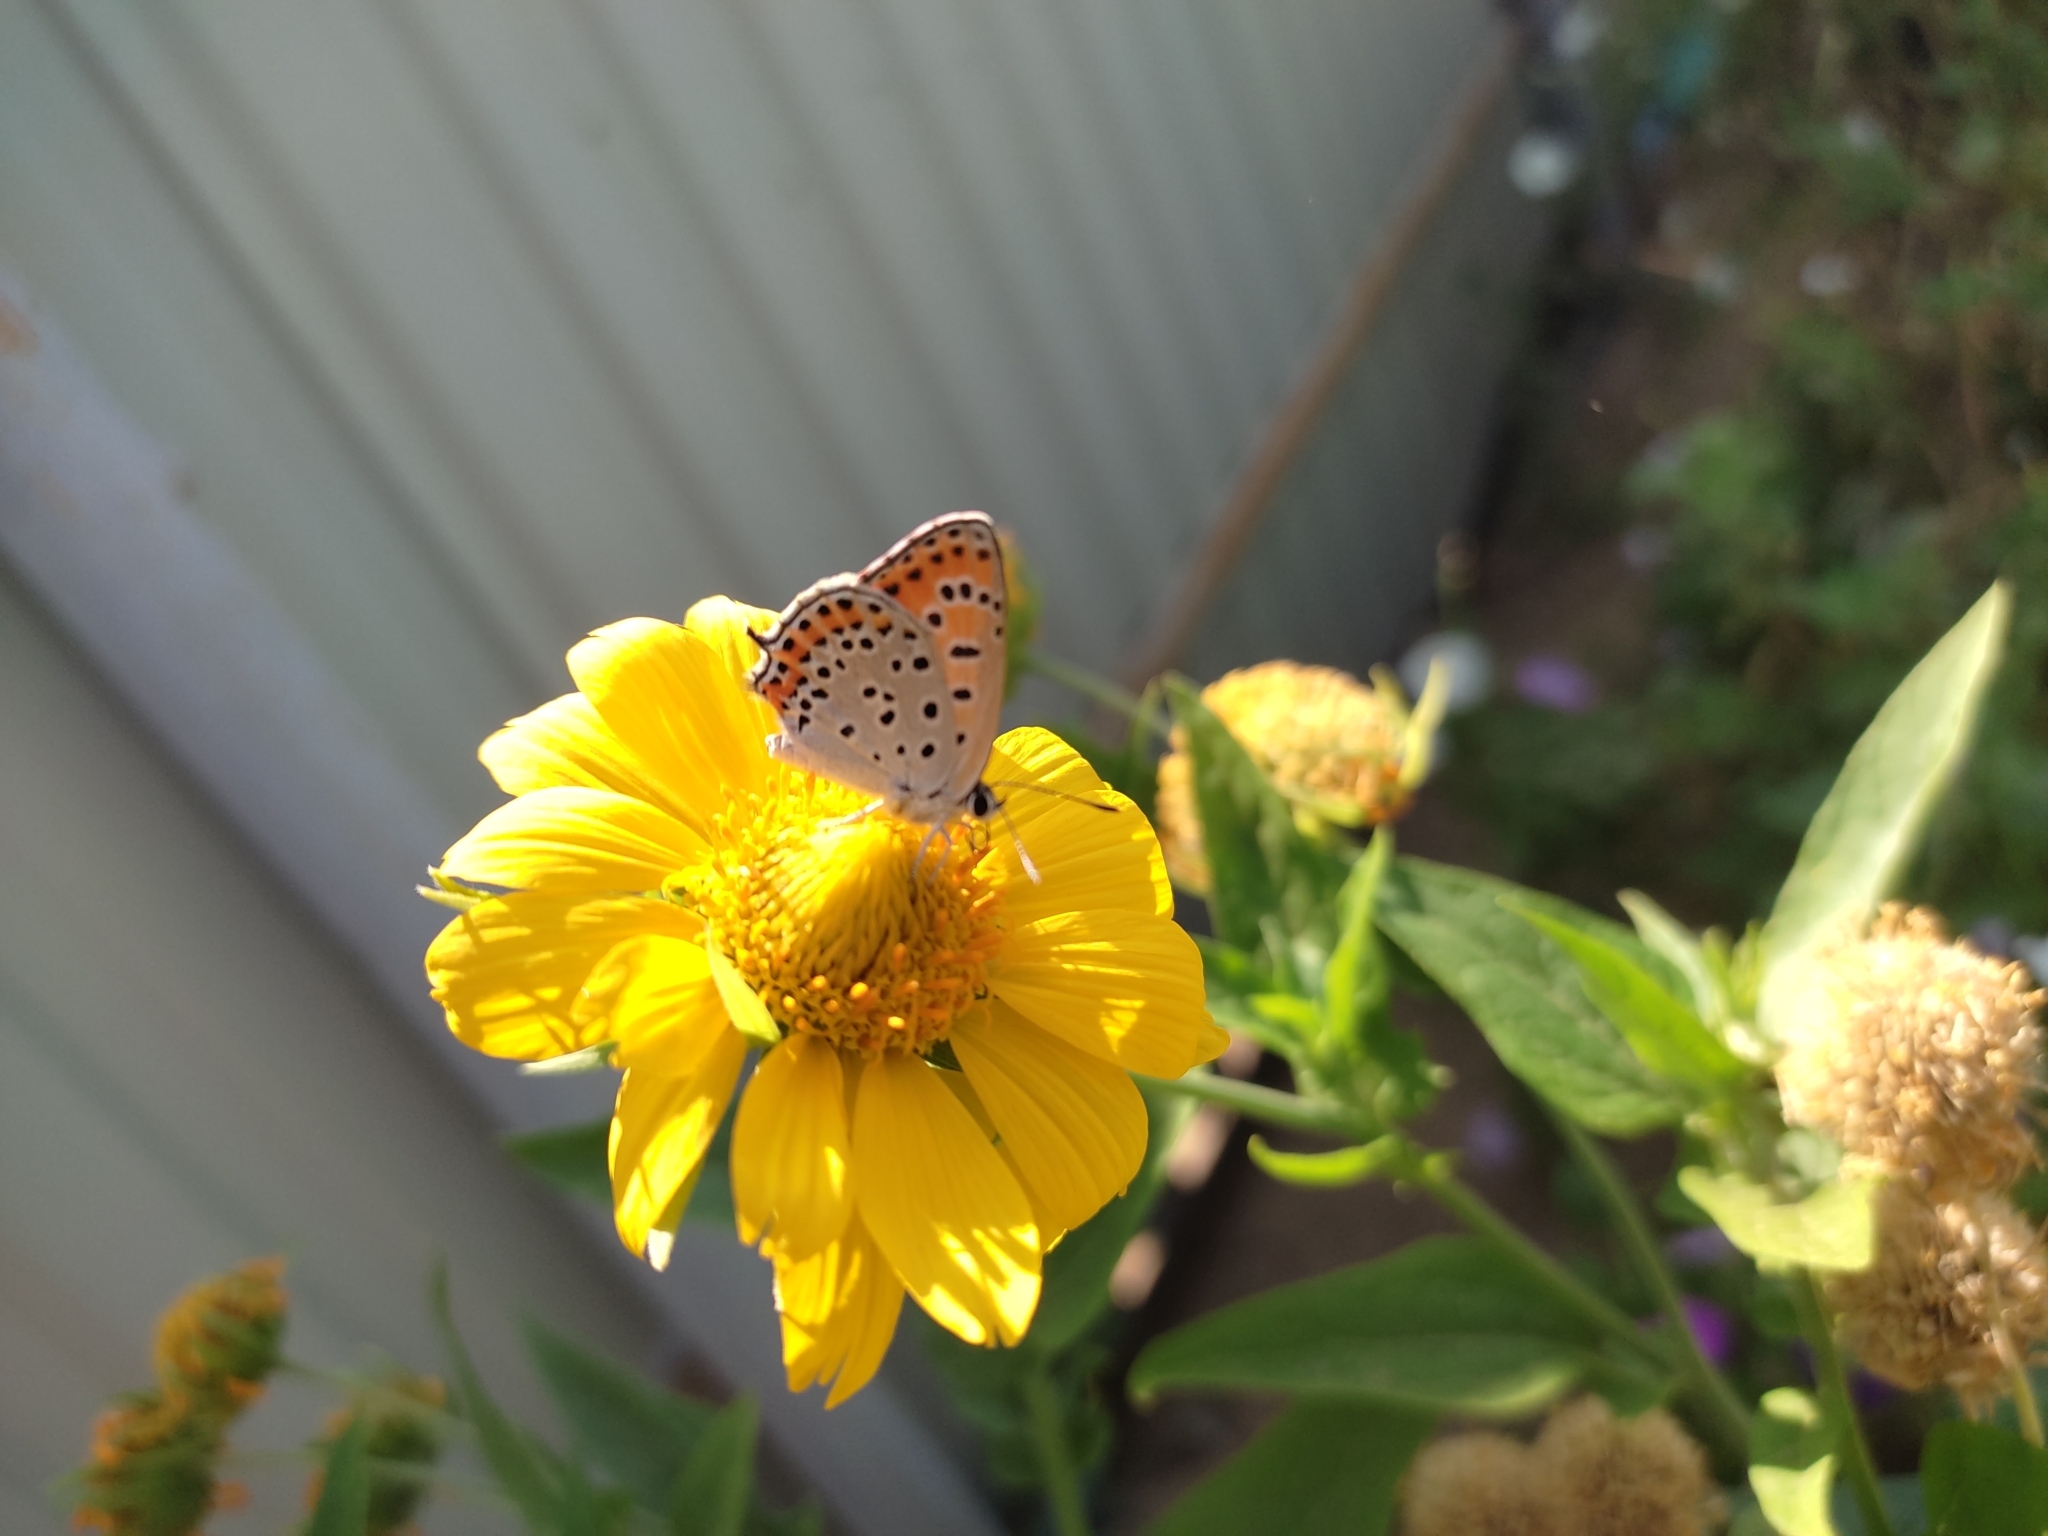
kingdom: Animalia
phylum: Arthropoda
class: Insecta
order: Lepidoptera
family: Lycaenidae
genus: Thersamonia
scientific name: Thersamonia thersamon
